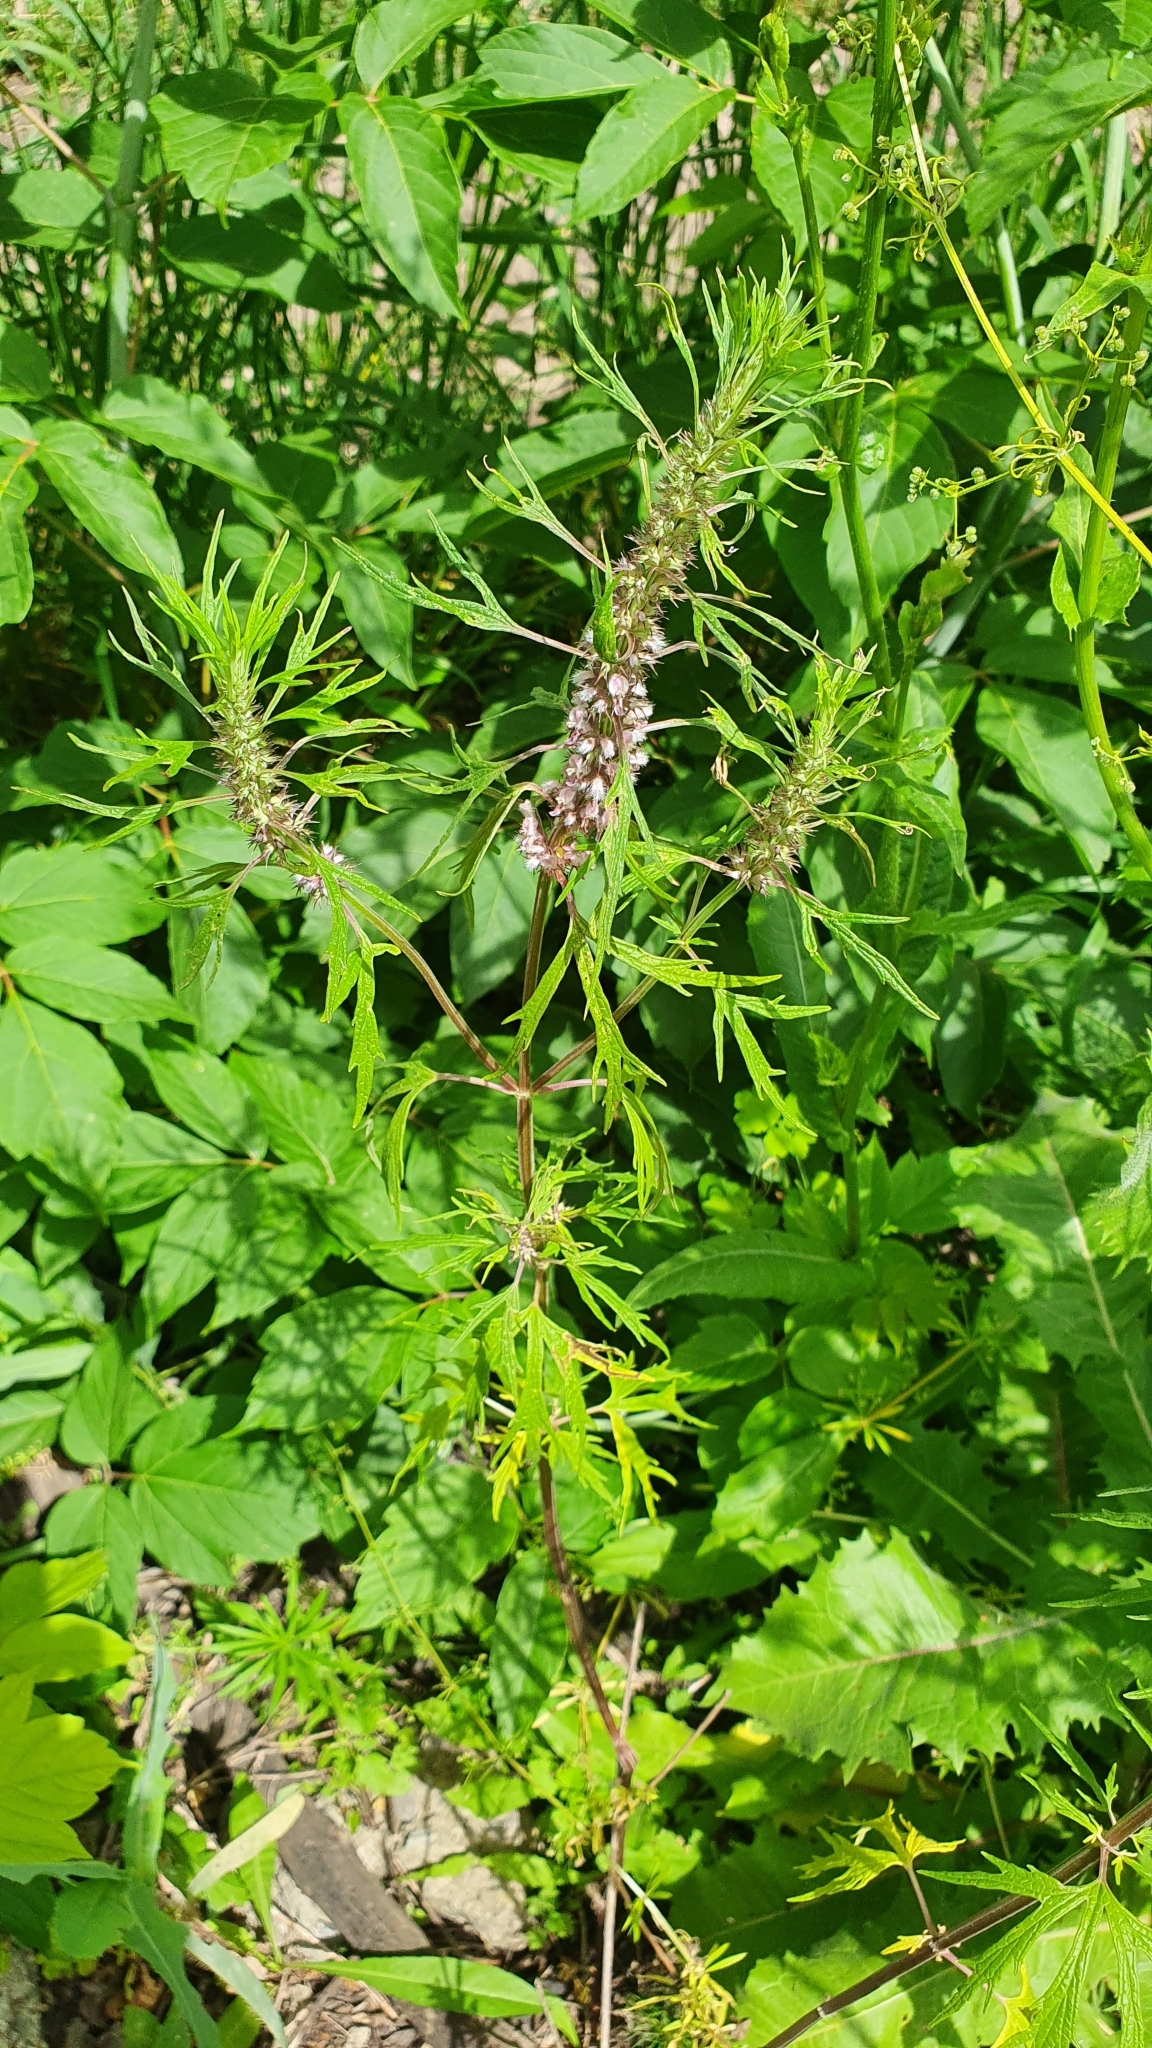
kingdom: Plantae
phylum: Tracheophyta
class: Magnoliopsida
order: Lamiales
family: Lamiaceae
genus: Leonurus
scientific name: Leonurus glaucescens
